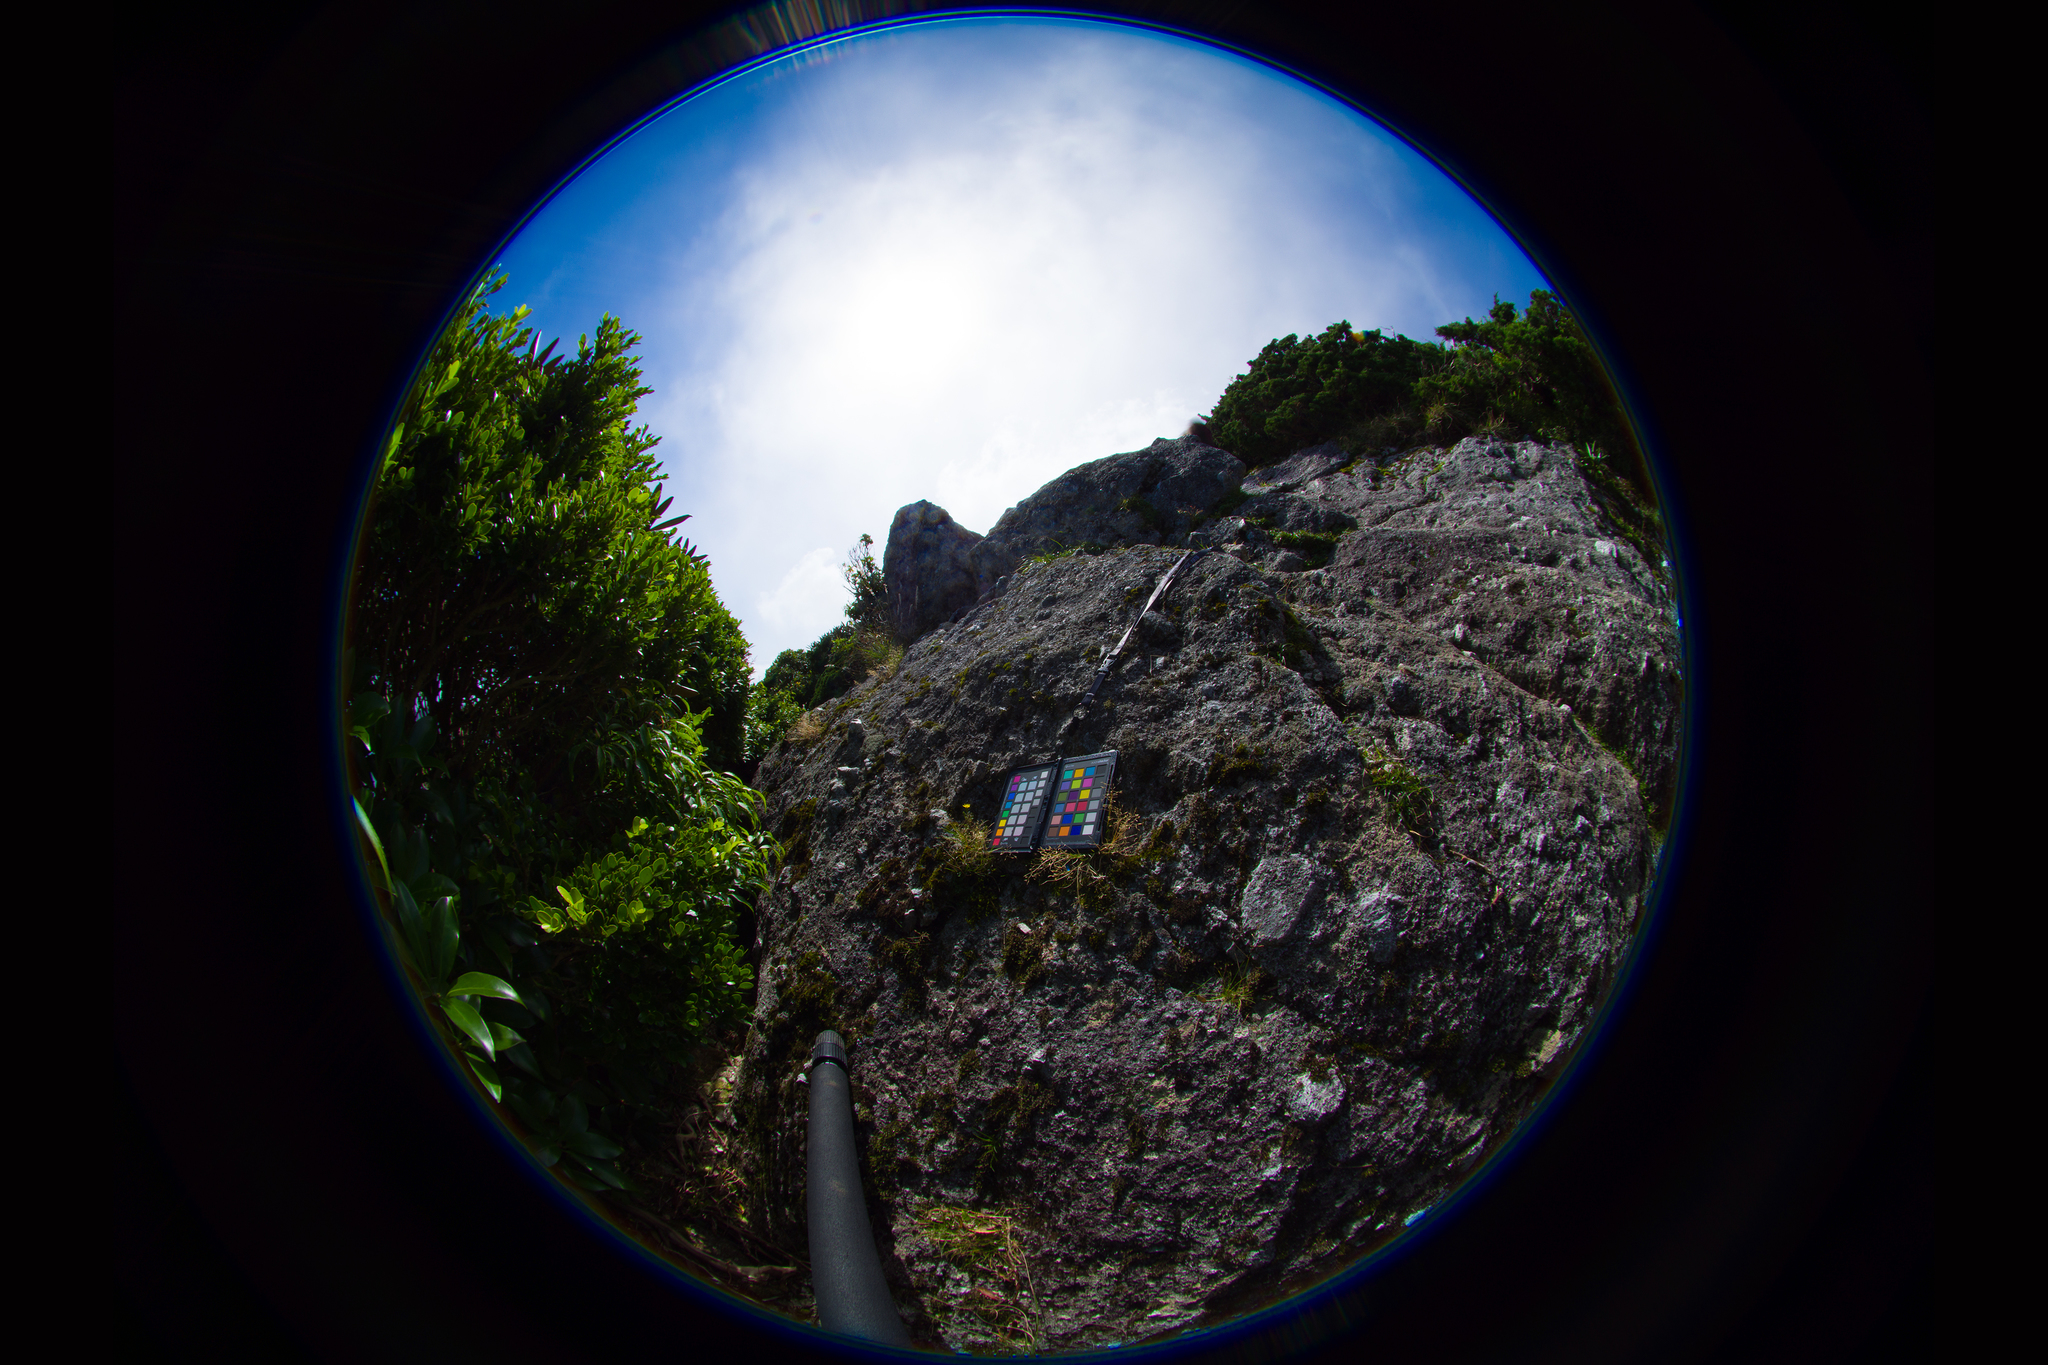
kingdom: Plantae
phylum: Tracheophyta
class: Magnoliopsida
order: Asterales
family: Asteraceae
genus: Solidago
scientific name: Solidago minutissima
